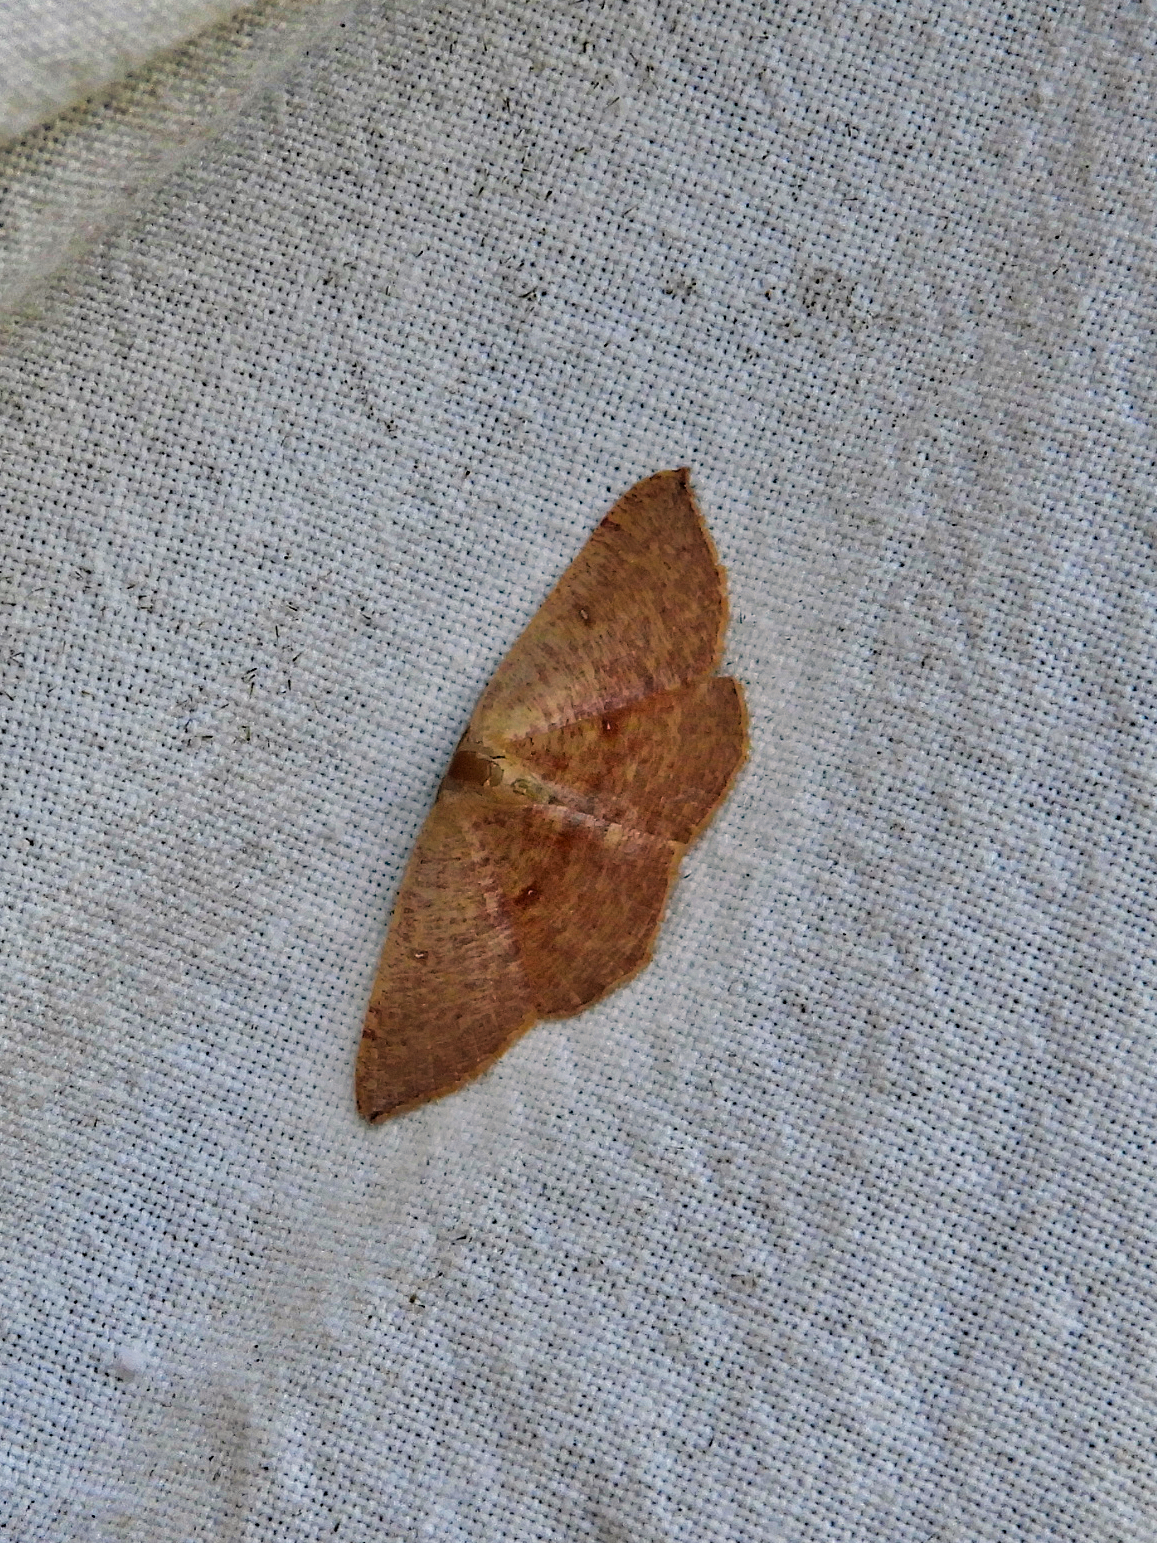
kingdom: Animalia
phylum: Arthropoda
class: Insecta
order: Lepidoptera
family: Geometridae
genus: Cyclophora
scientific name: Cyclophora puppillaria
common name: Blair's mocha
